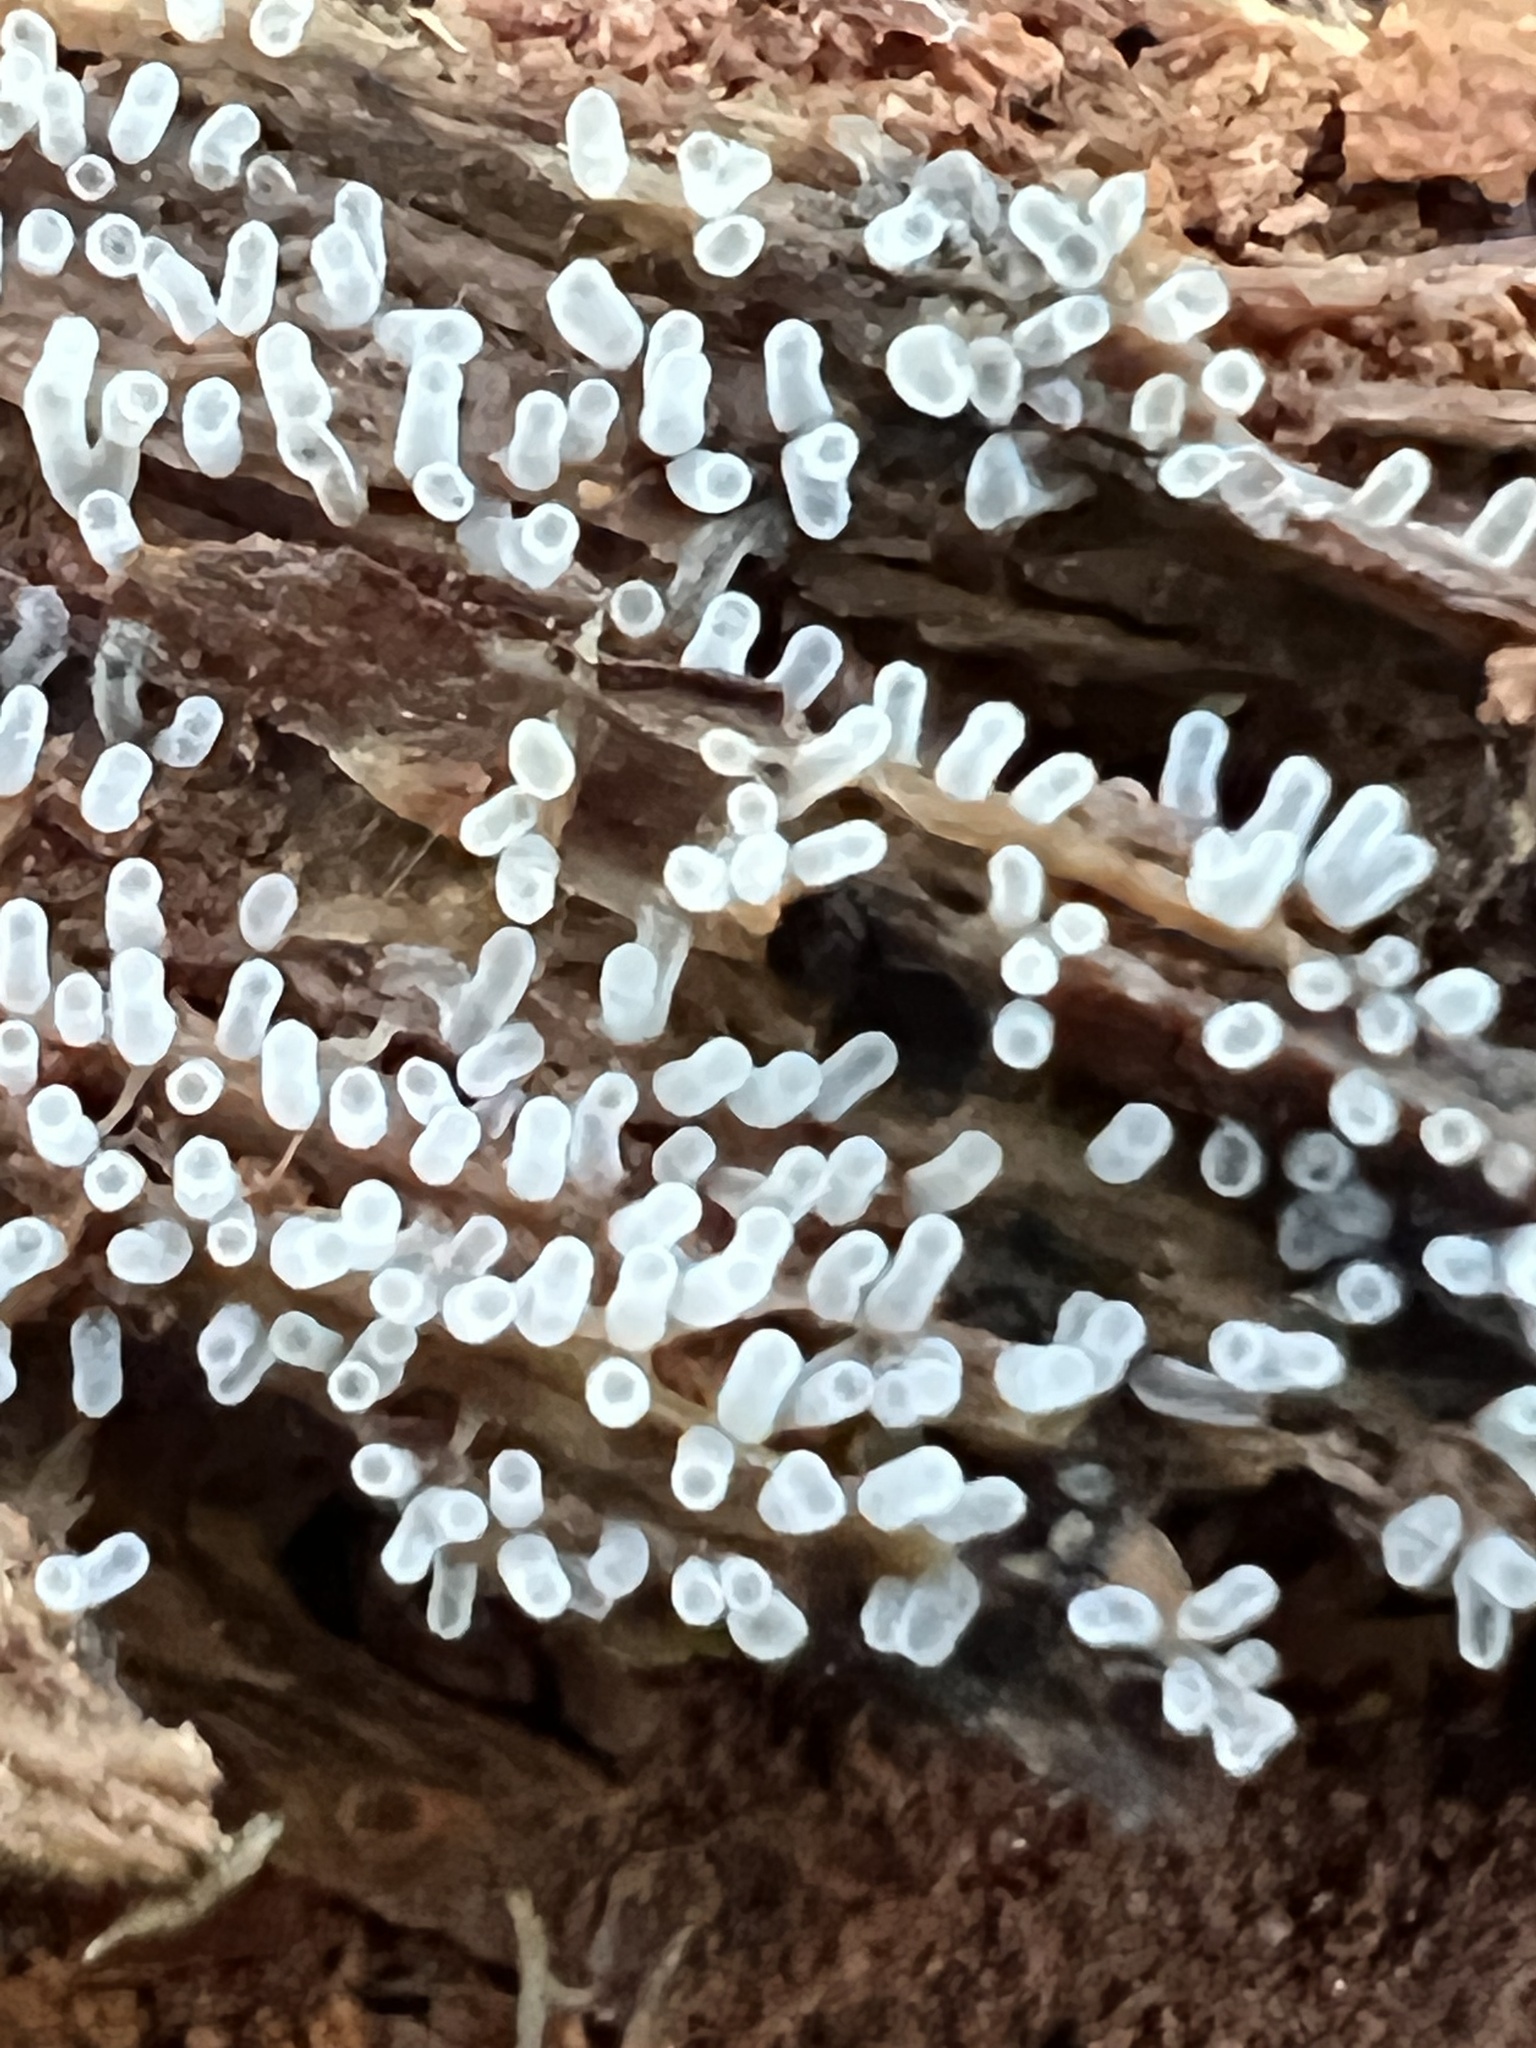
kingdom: Protozoa
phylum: Mycetozoa
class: Protosteliomycetes
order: Ceratiomyxales
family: Ceratiomyxaceae
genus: Ceratiomyxa
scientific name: Ceratiomyxa fruticulosa
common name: Honeycomb coral slime mold
